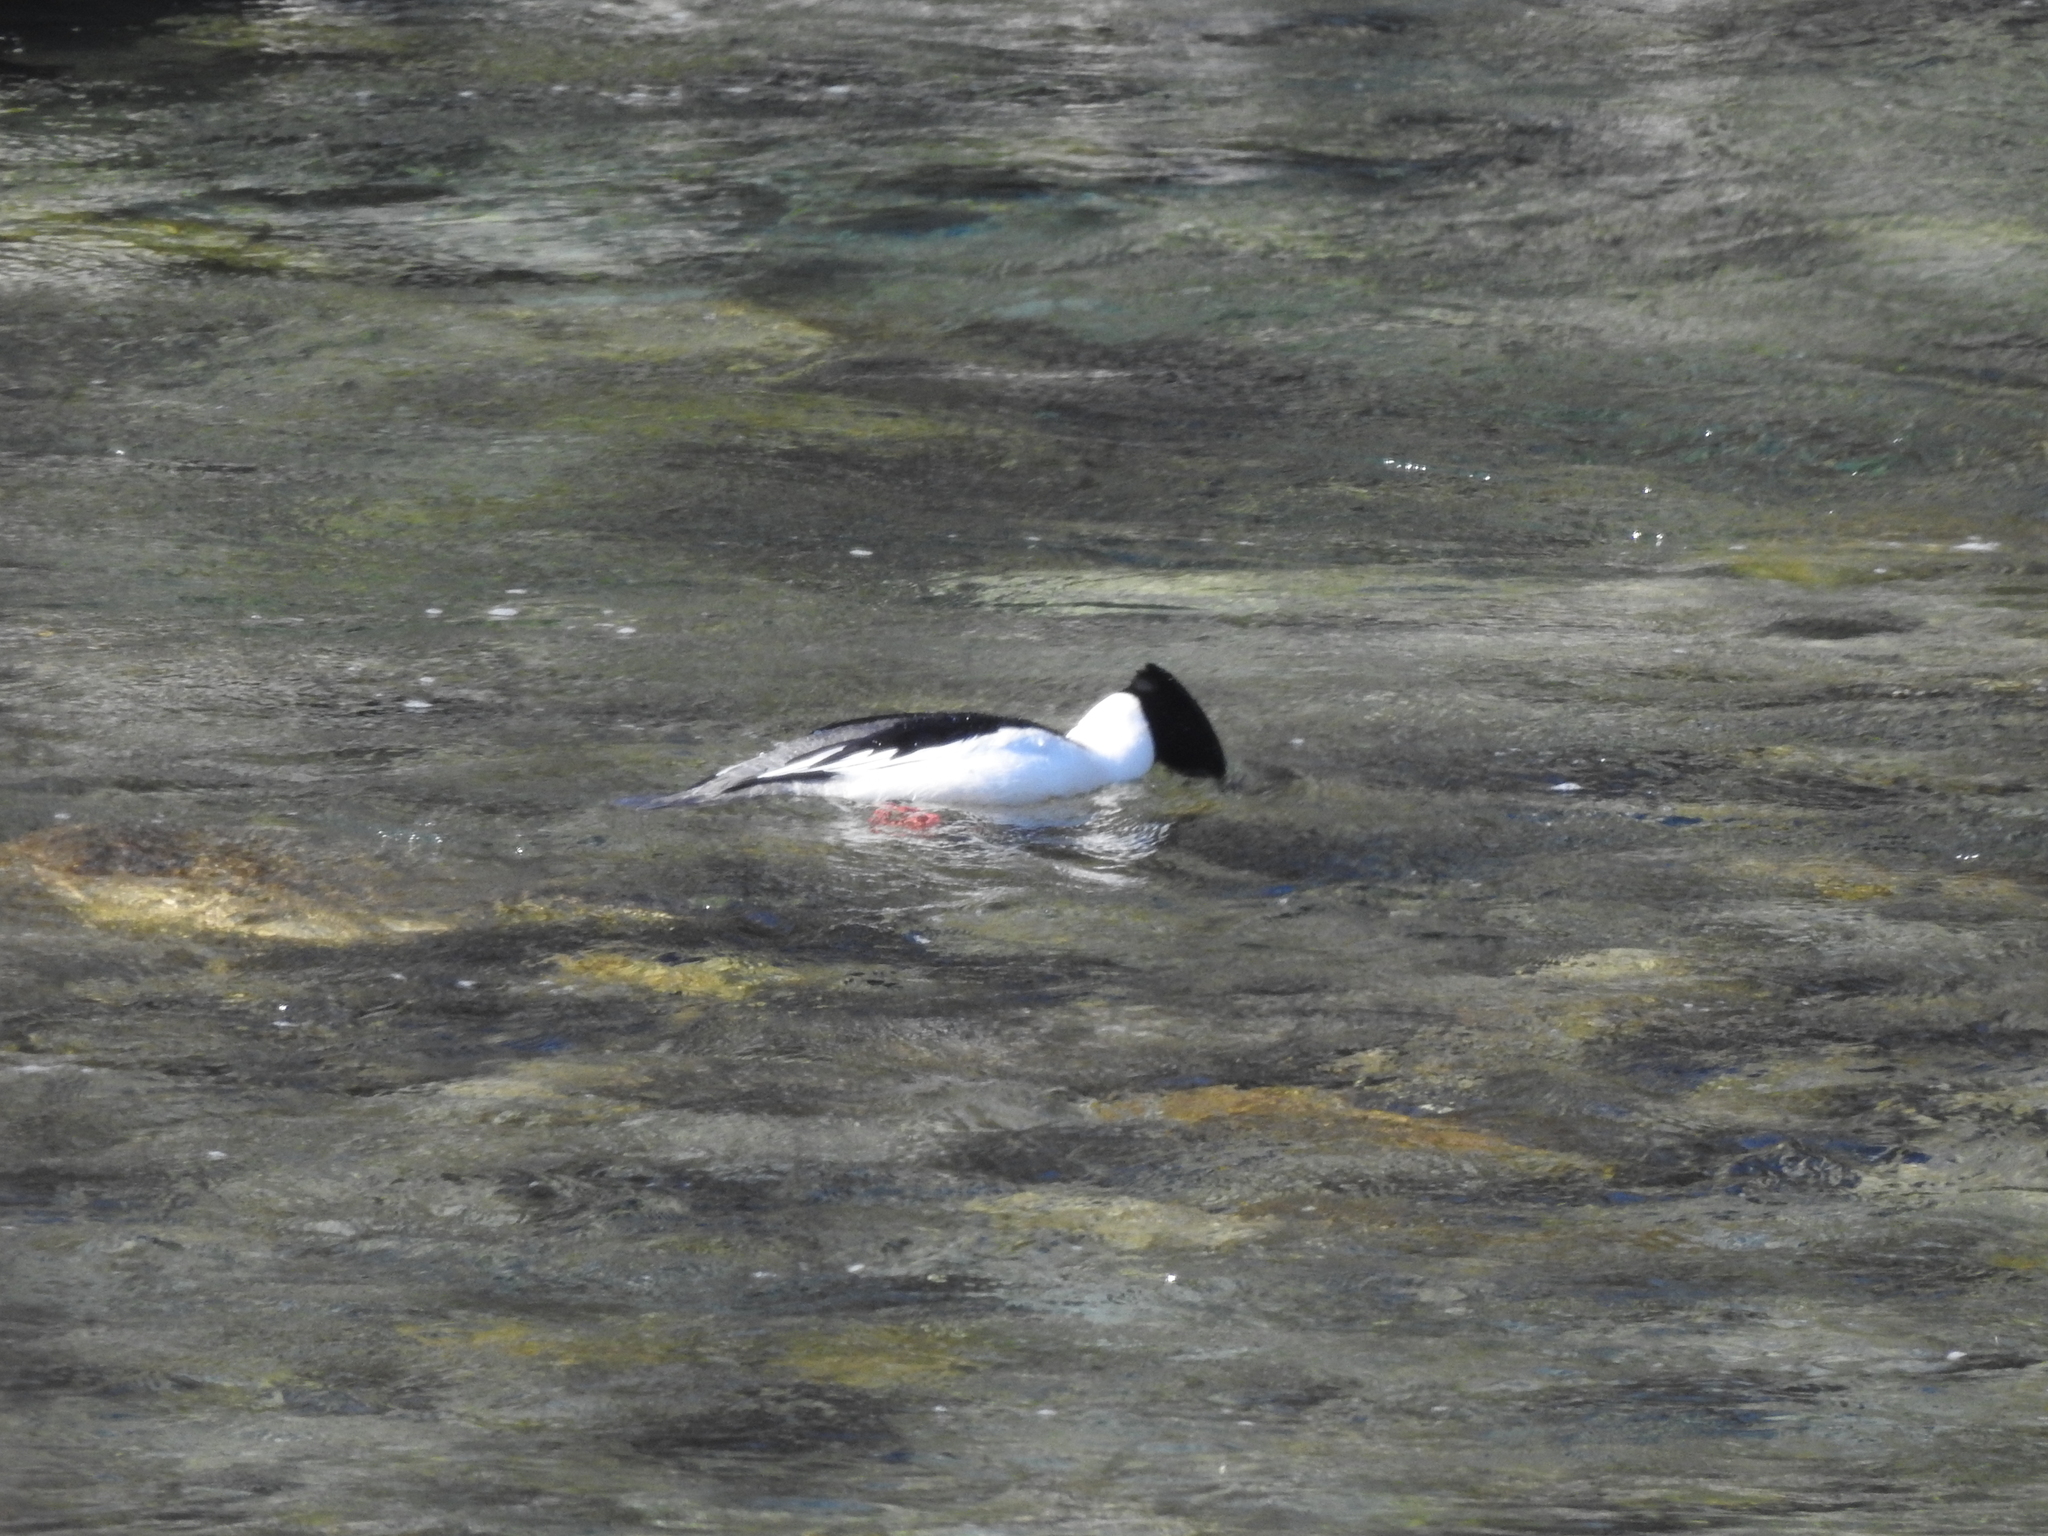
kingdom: Animalia
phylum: Chordata
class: Aves
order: Anseriformes
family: Anatidae
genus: Mergus
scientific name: Mergus merganser
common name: Common merganser
